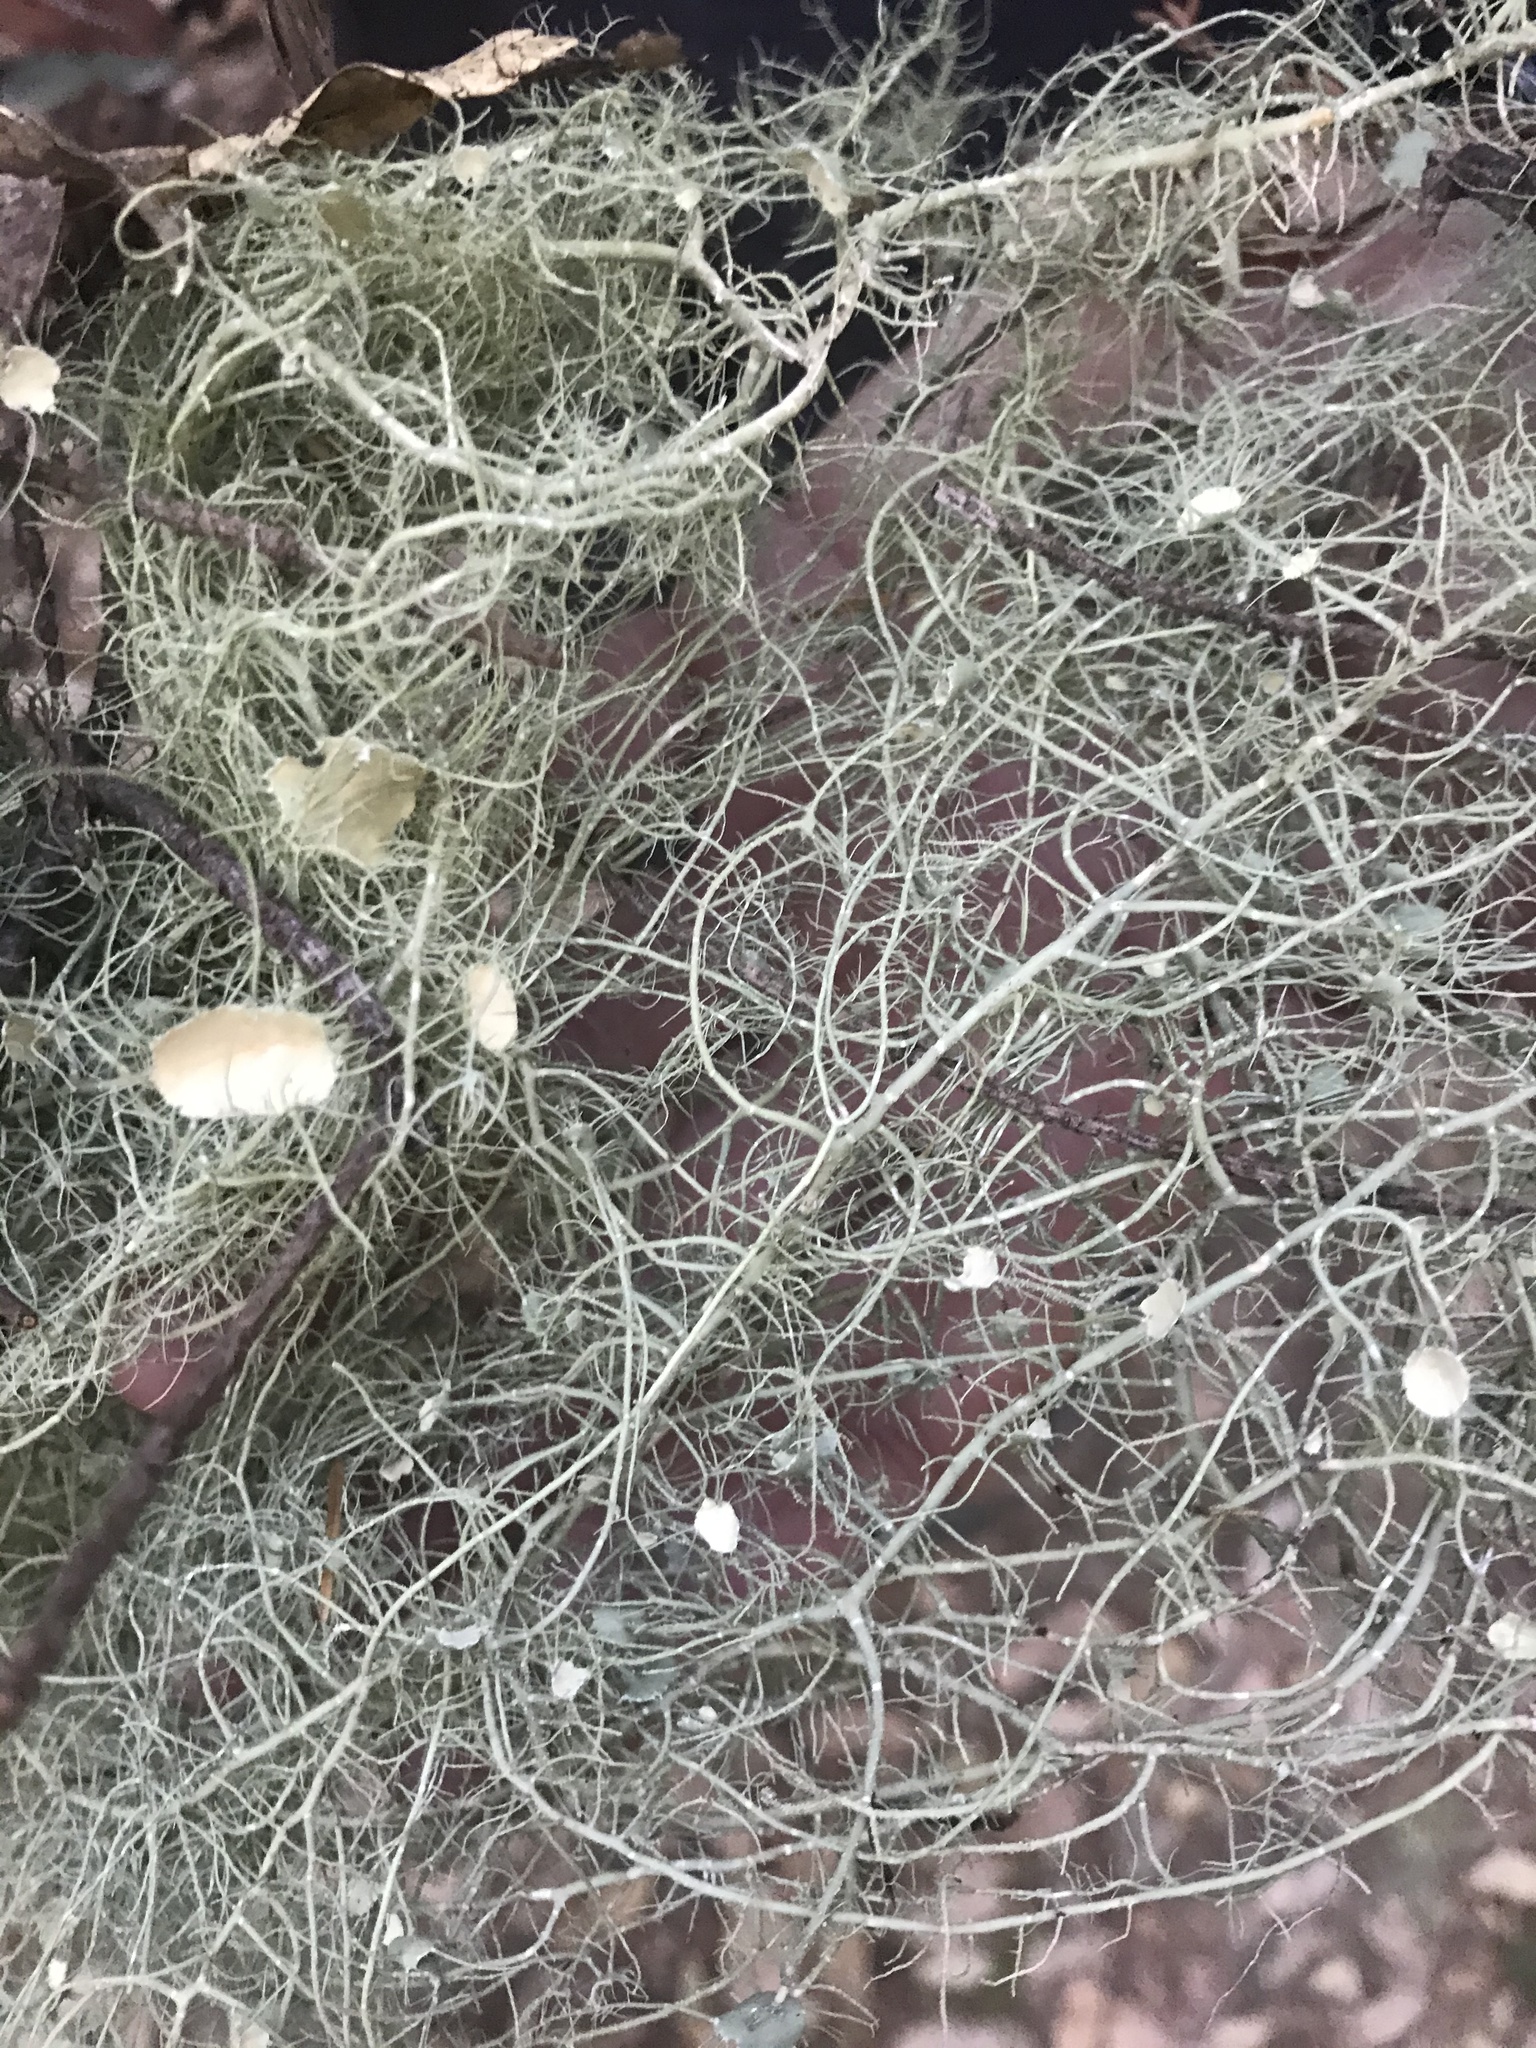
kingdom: Fungi
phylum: Ascomycota
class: Lecanoromycetes
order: Lecanorales
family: Parmeliaceae
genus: Usnea
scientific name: Usnea intermedia
